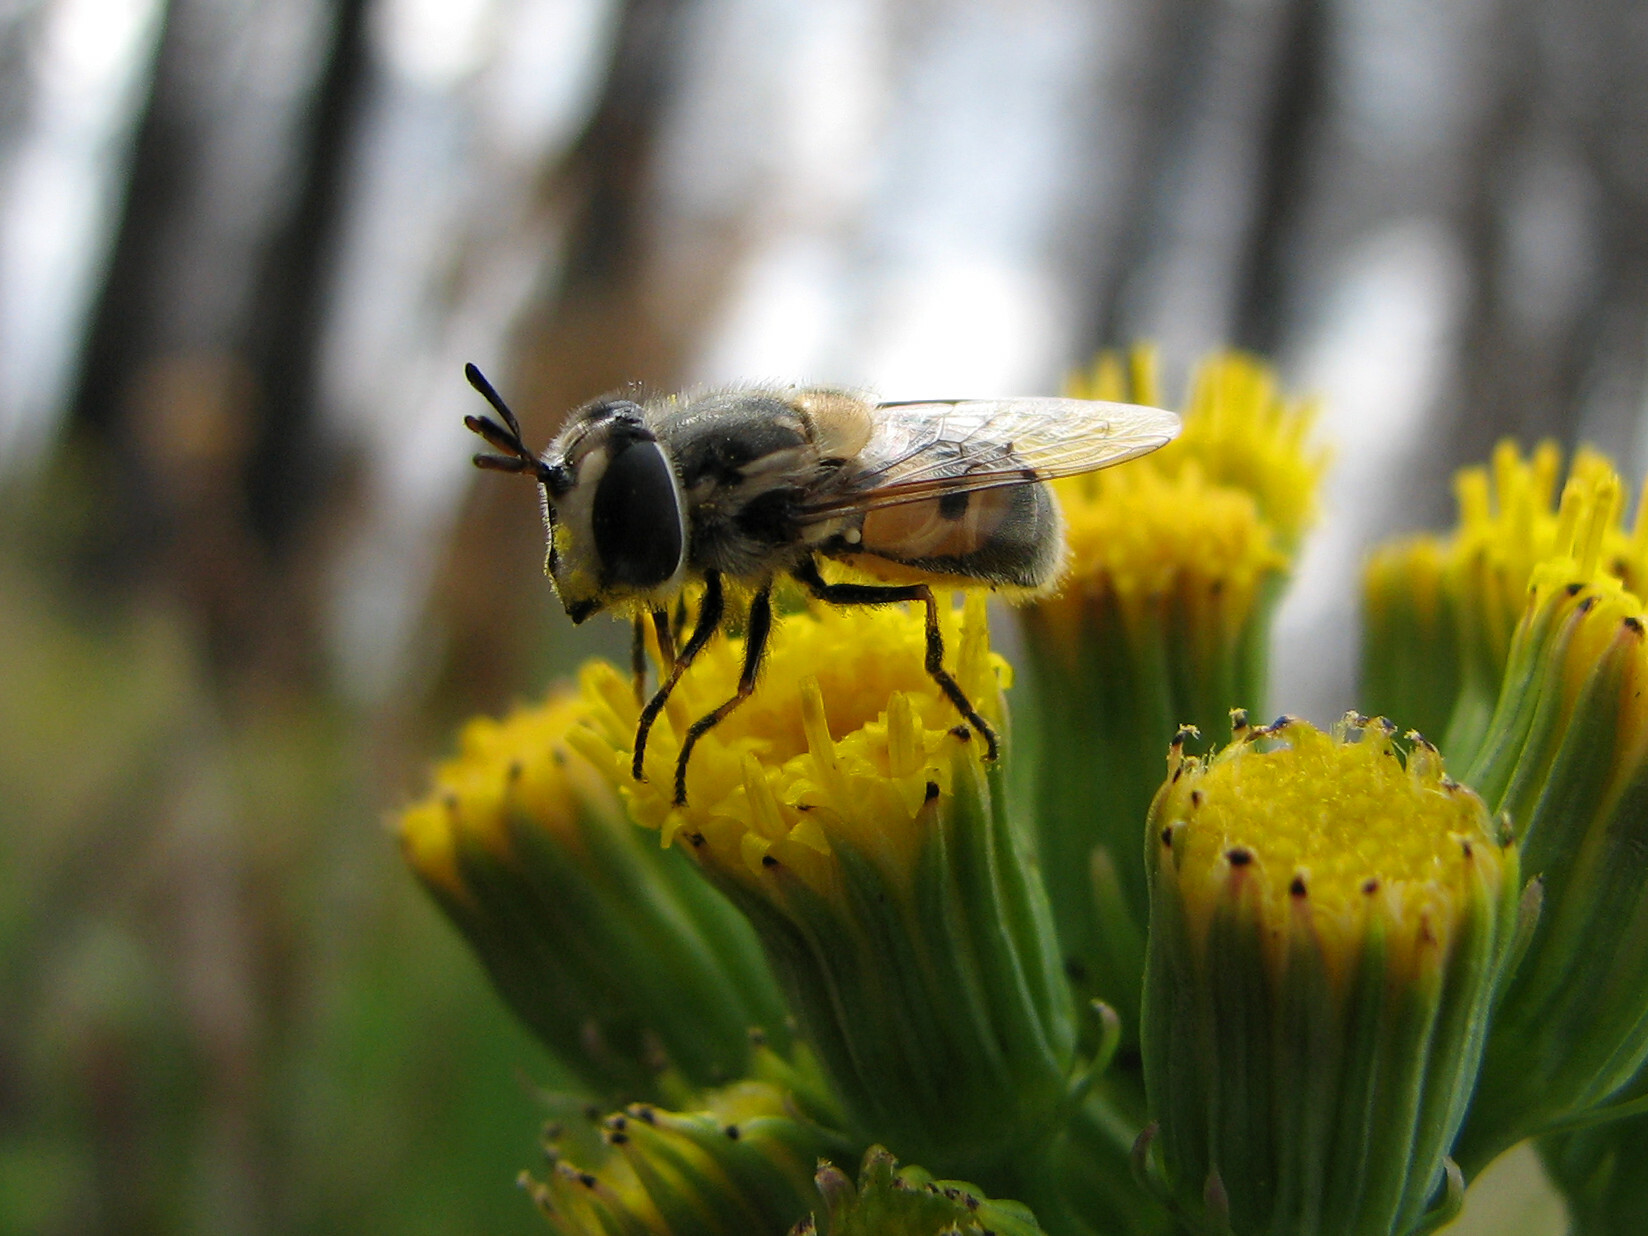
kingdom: Animalia
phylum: Arthropoda
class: Insecta
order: Diptera
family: Syrphidae
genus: Copestylum
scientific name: Copestylum lentum
